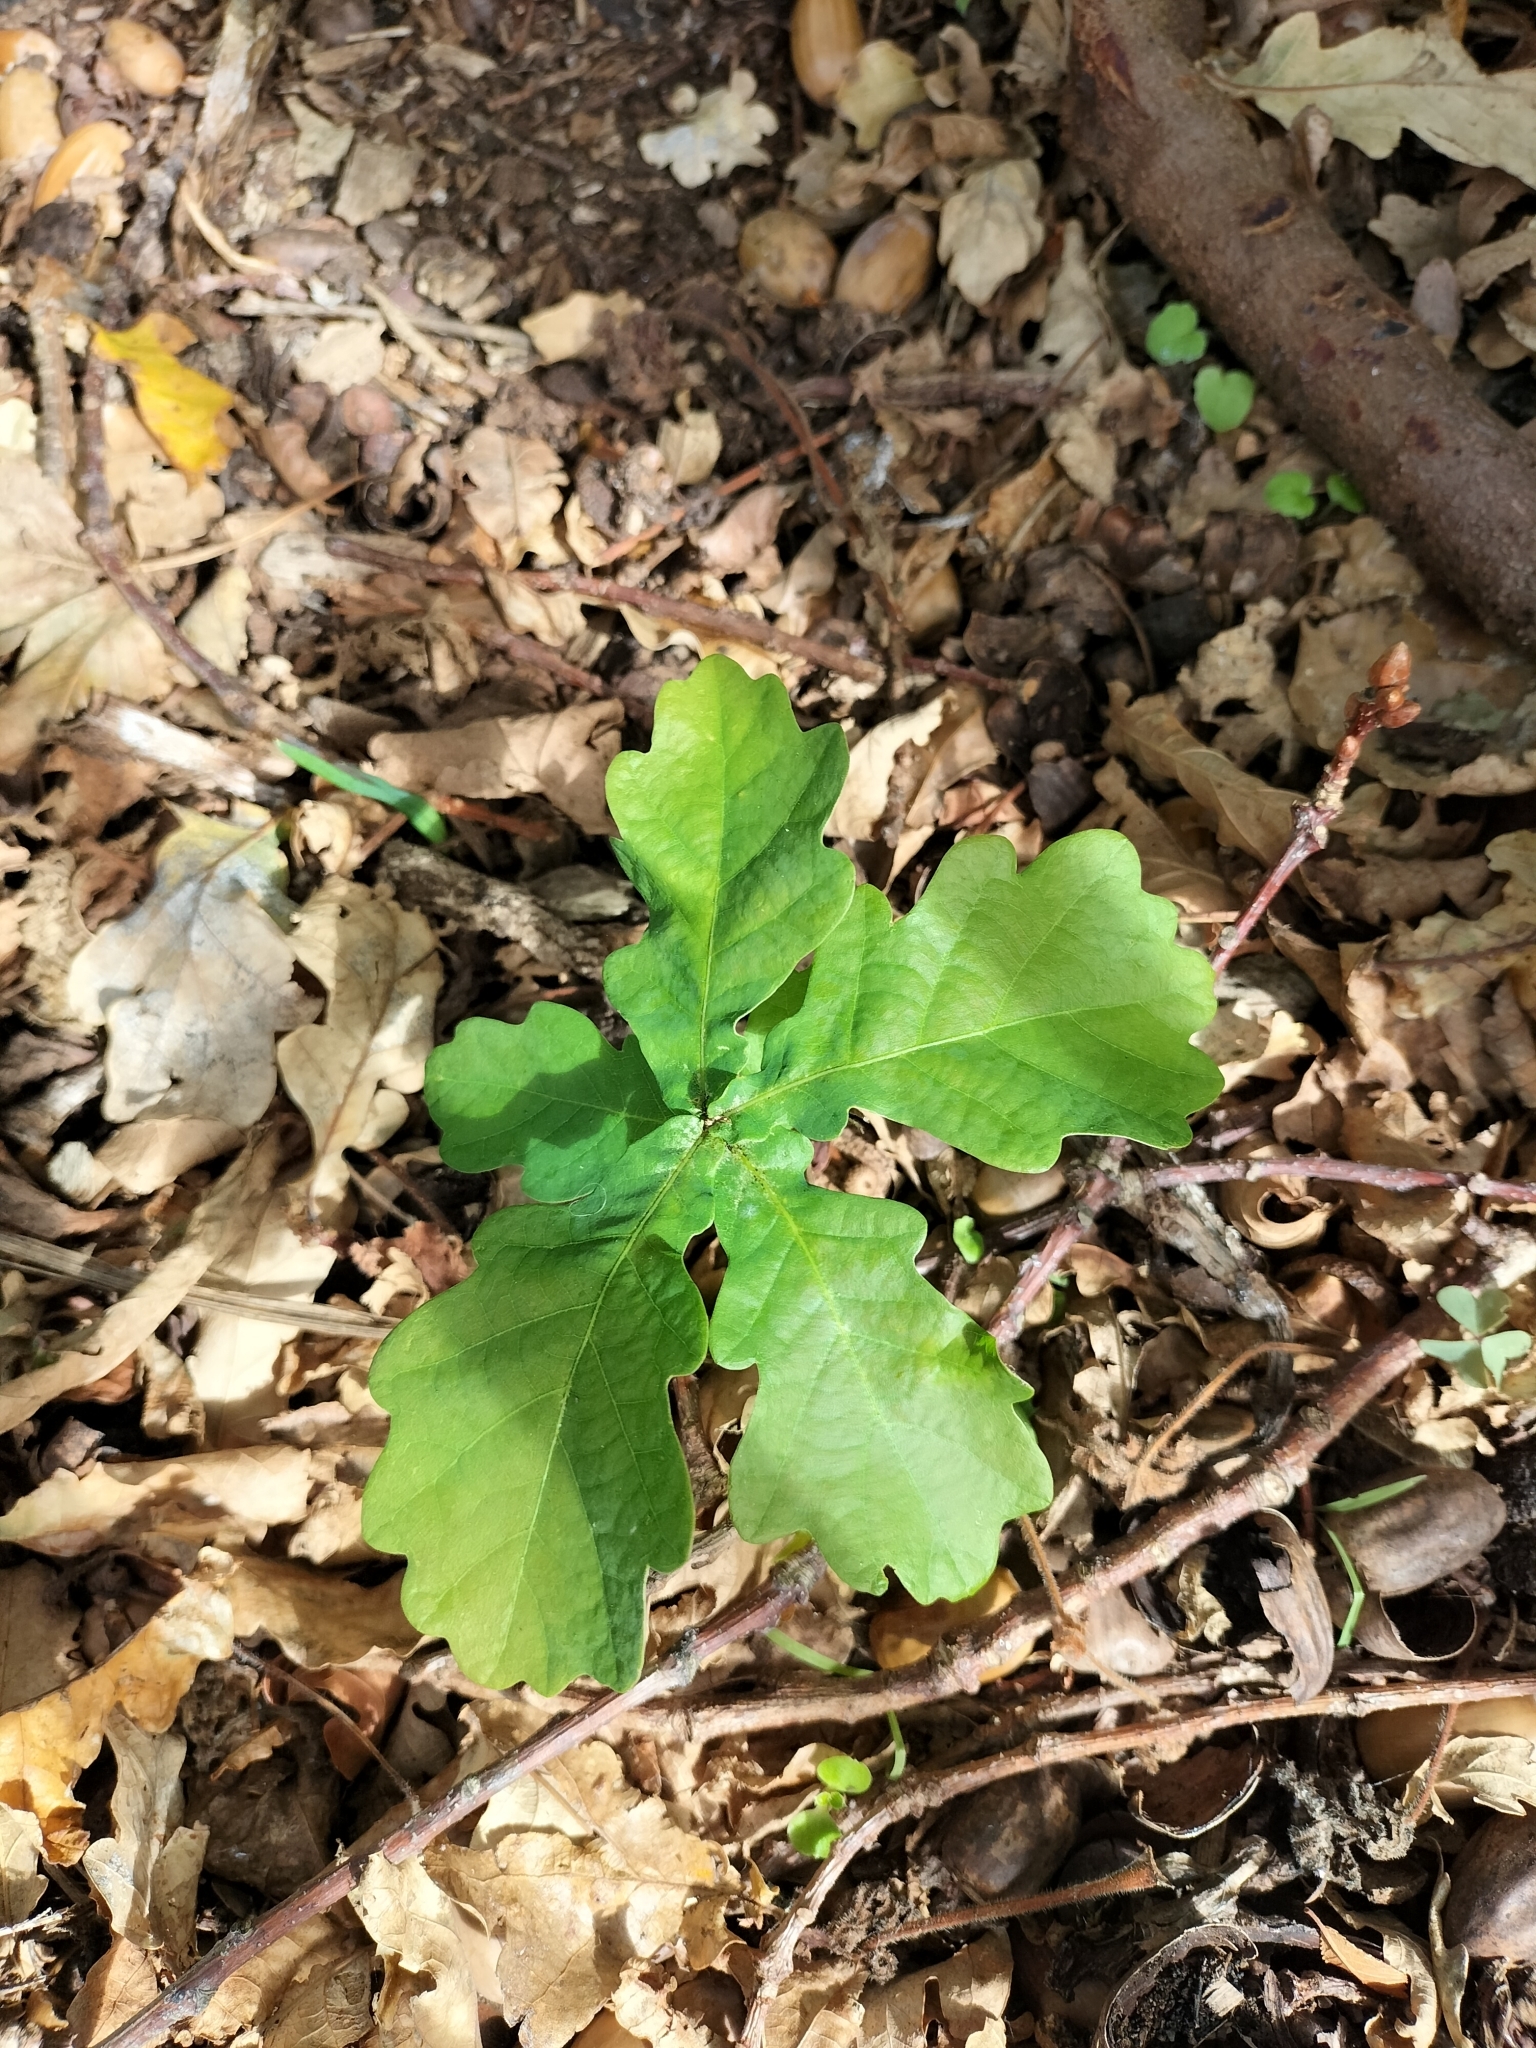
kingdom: Plantae
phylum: Tracheophyta
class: Magnoliopsida
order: Fagales
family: Fagaceae
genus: Quercus
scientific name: Quercus
